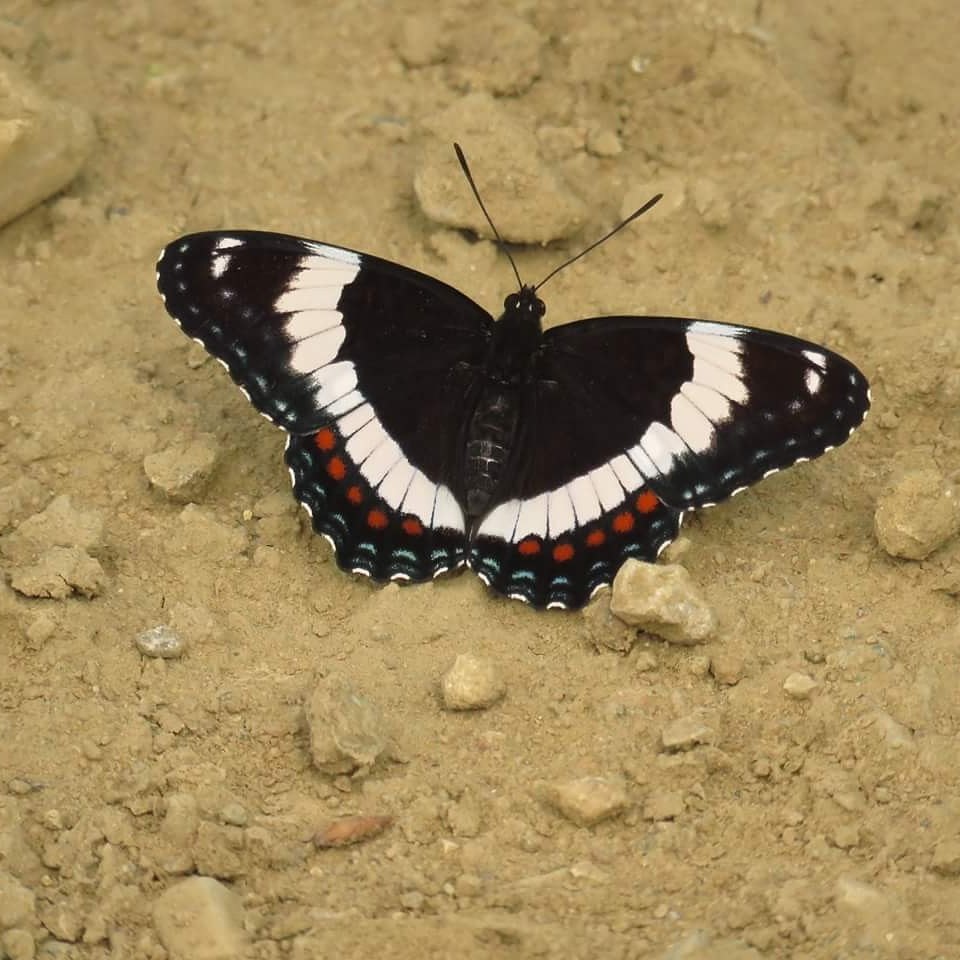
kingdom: Animalia
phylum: Arthropoda
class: Insecta
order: Lepidoptera
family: Nymphalidae
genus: Limenitis
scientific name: Limenitis arthemis
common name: Red-spotted admiral
